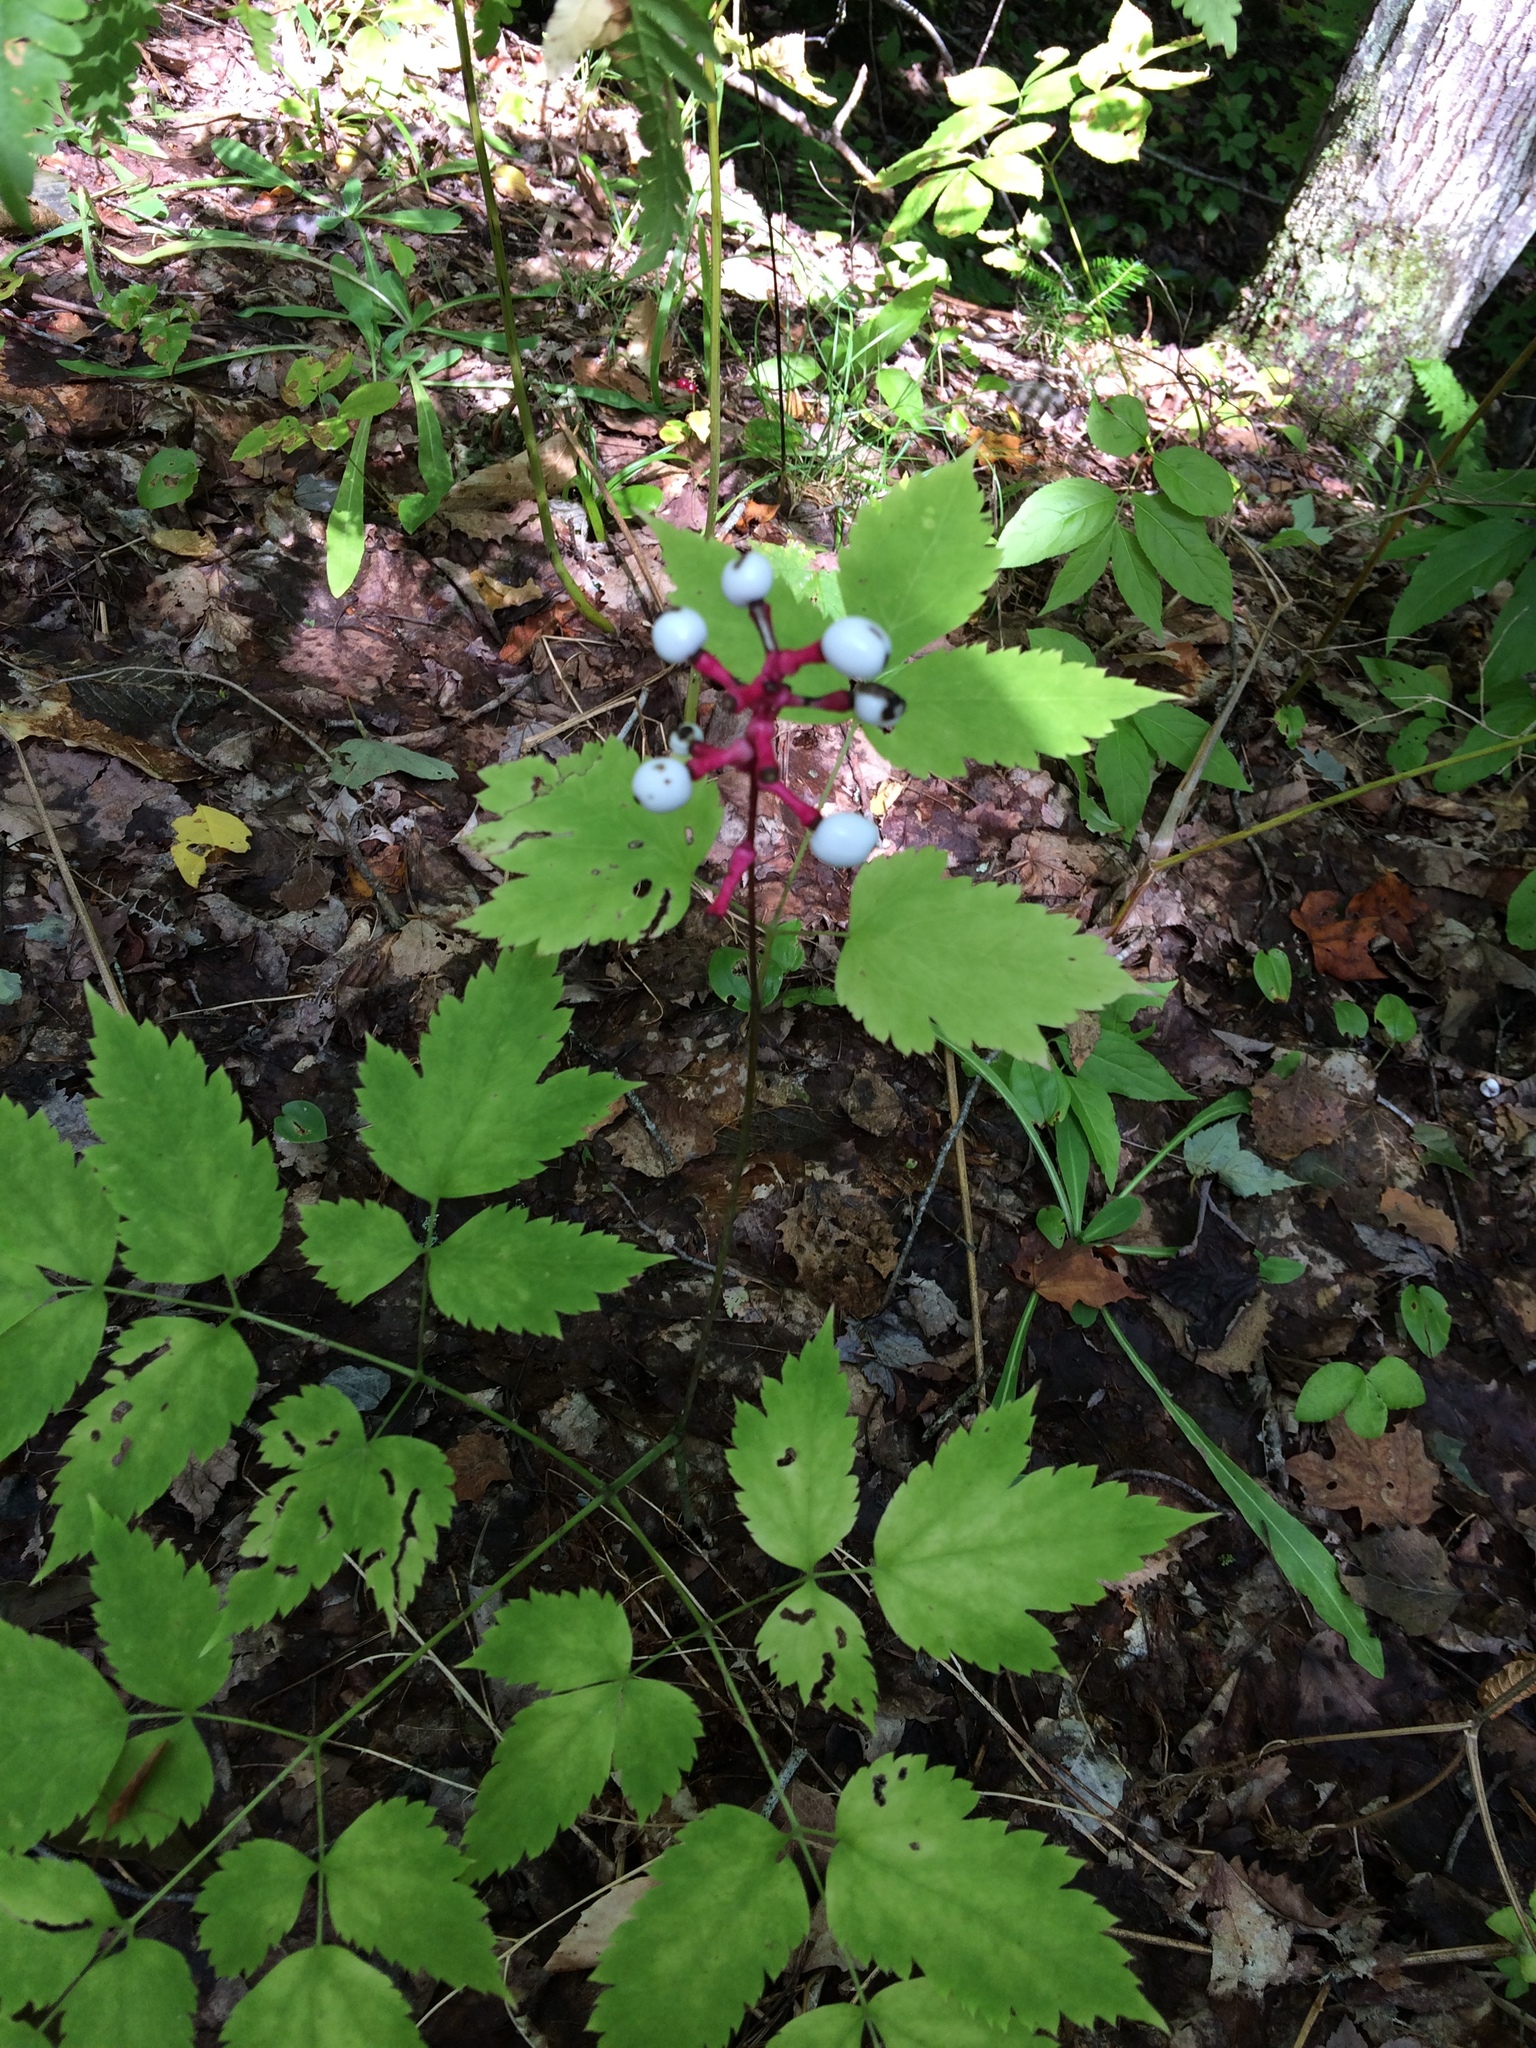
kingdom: Plantae
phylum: Tracheophyta
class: Magnoliopsida
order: Ranunculales
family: Ranunculaceae
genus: Actaea
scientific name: Actaea pachypoda
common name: Doll's-eyes
